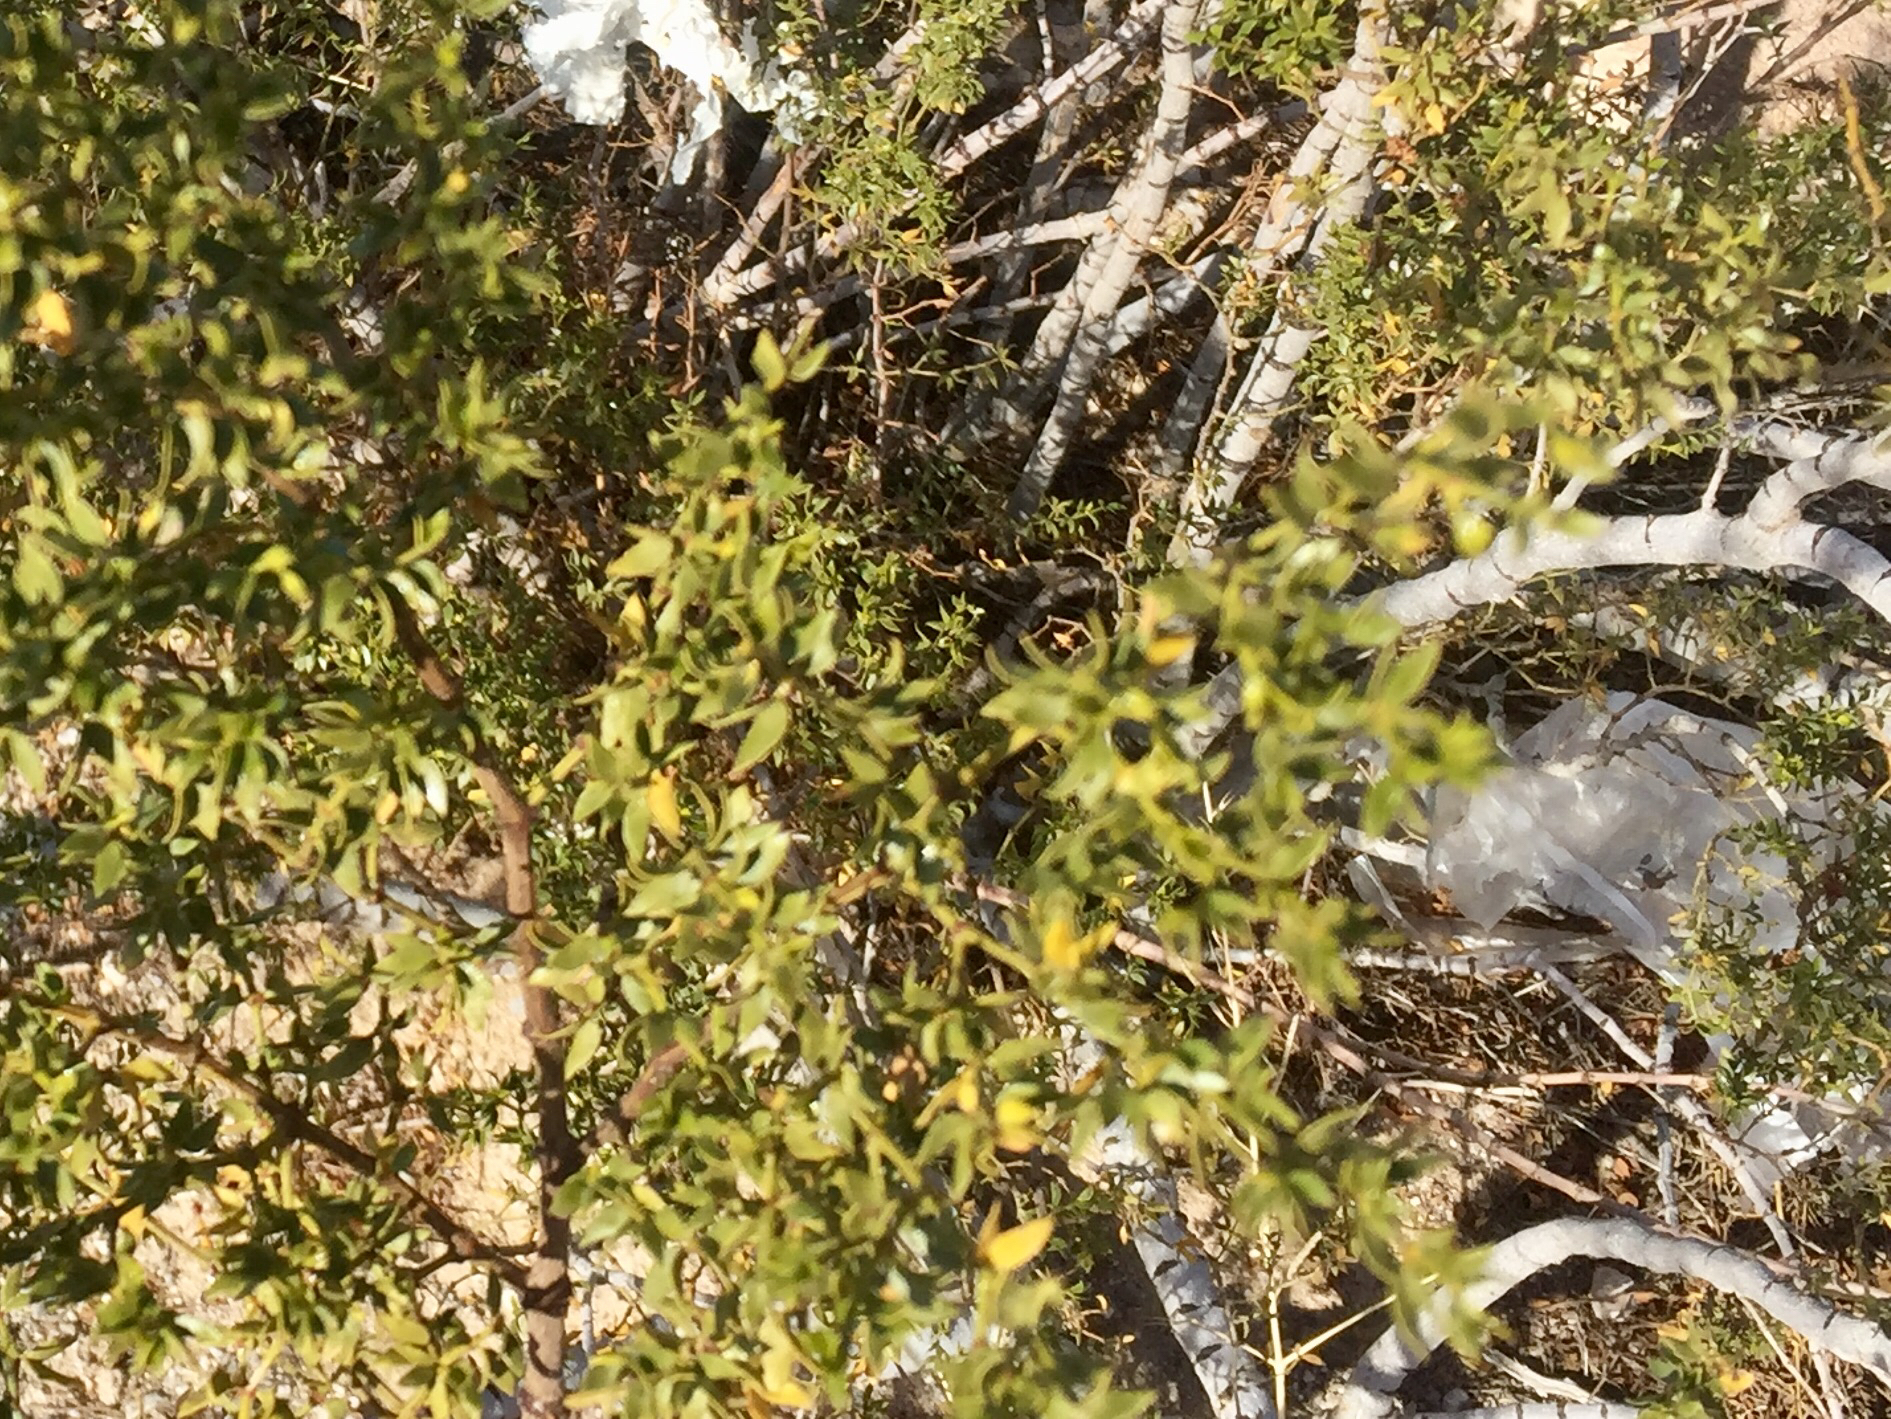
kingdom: Plantae
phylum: Tracheophyta
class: Magnoliopsida
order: Zygophyllales
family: Zygophyllaceae
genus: Larrea
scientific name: Larrea tridentata
